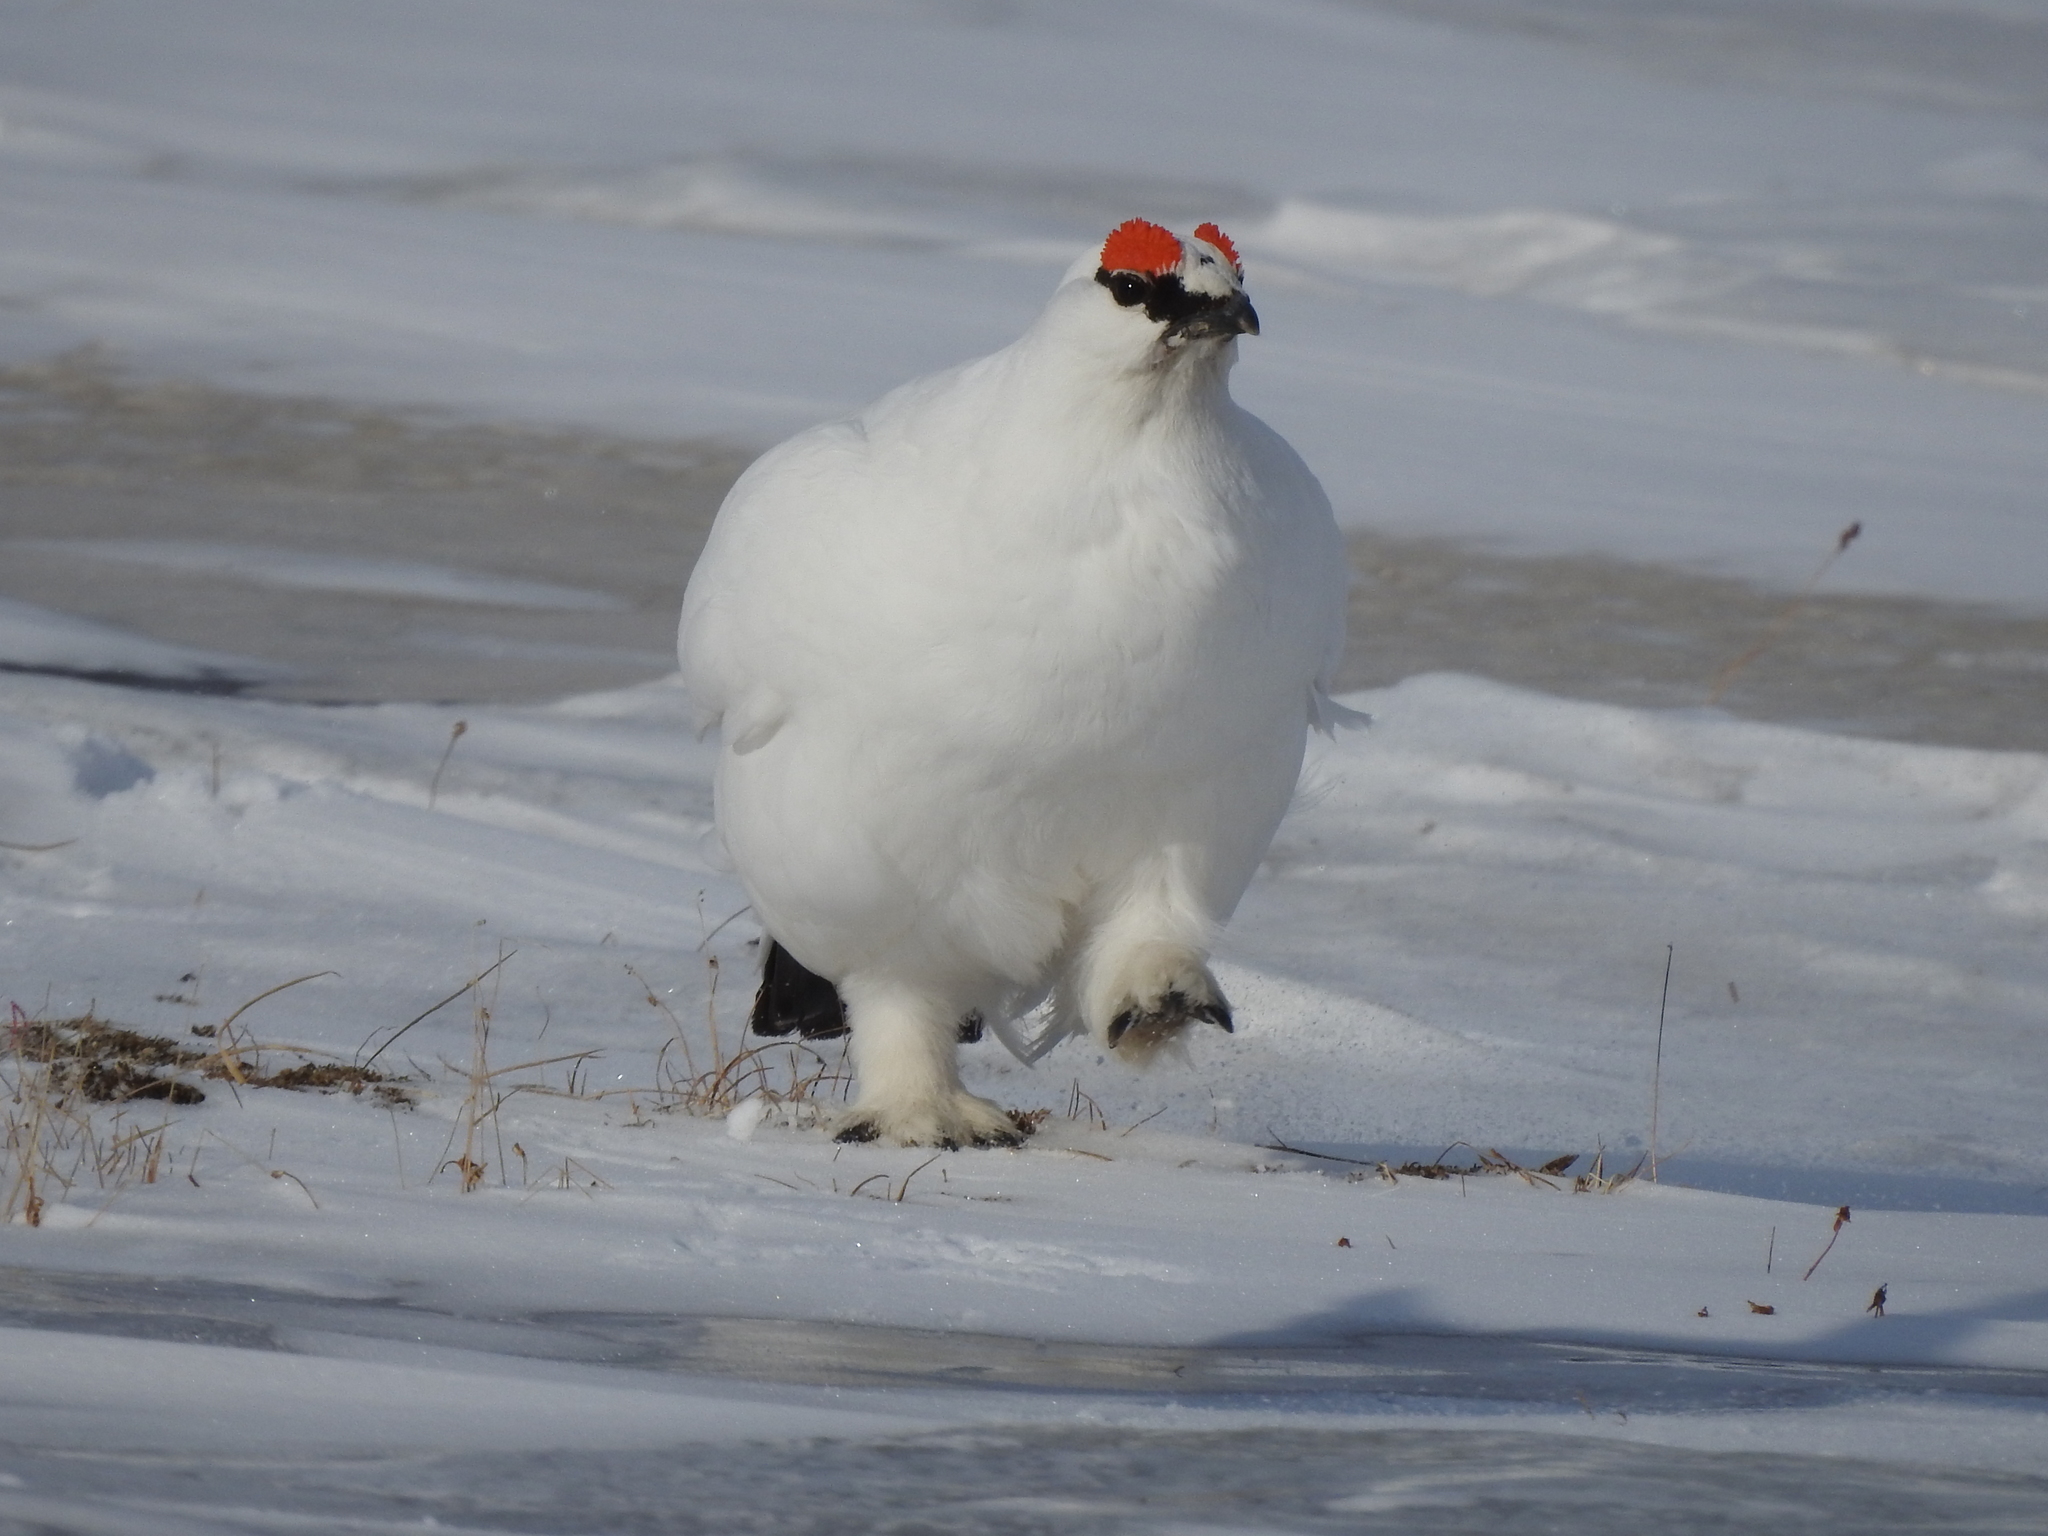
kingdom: Animalia
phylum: Chordata
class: Aves
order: Galliformes
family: Phasianidae
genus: Lagopus
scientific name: Lagopus muta
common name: Rock ptarmigan
